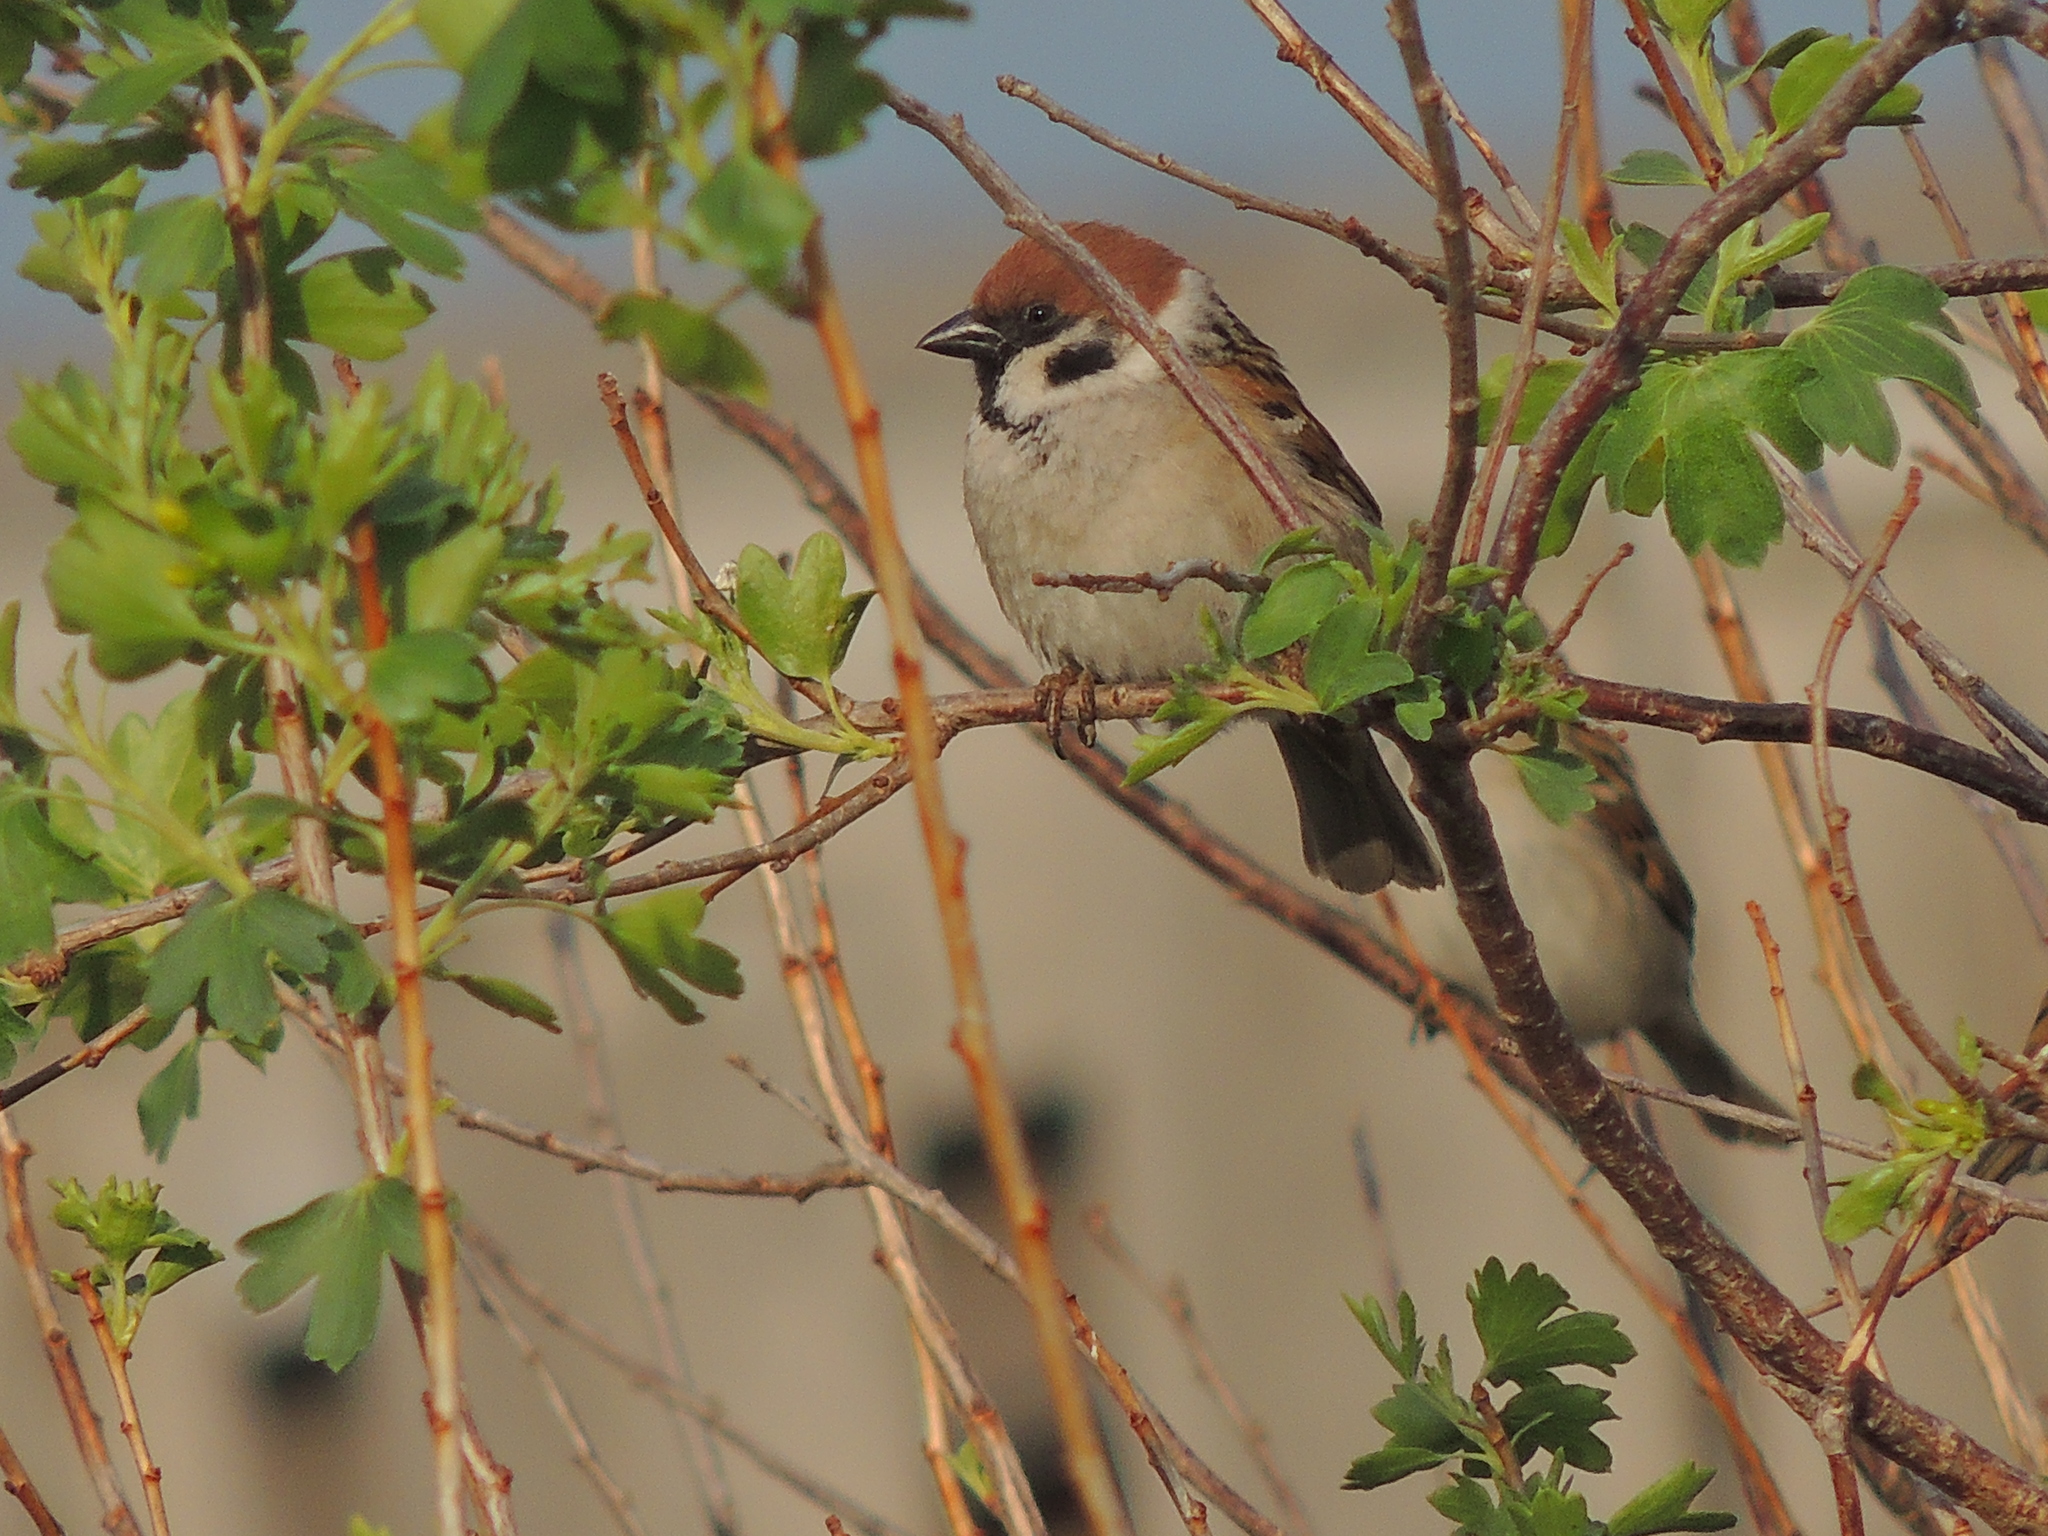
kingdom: Animalia
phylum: Chordata
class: Aves
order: Passeriformes
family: Passeridae
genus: Passer
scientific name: Passer montanus
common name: Eurasian tree sparrow
